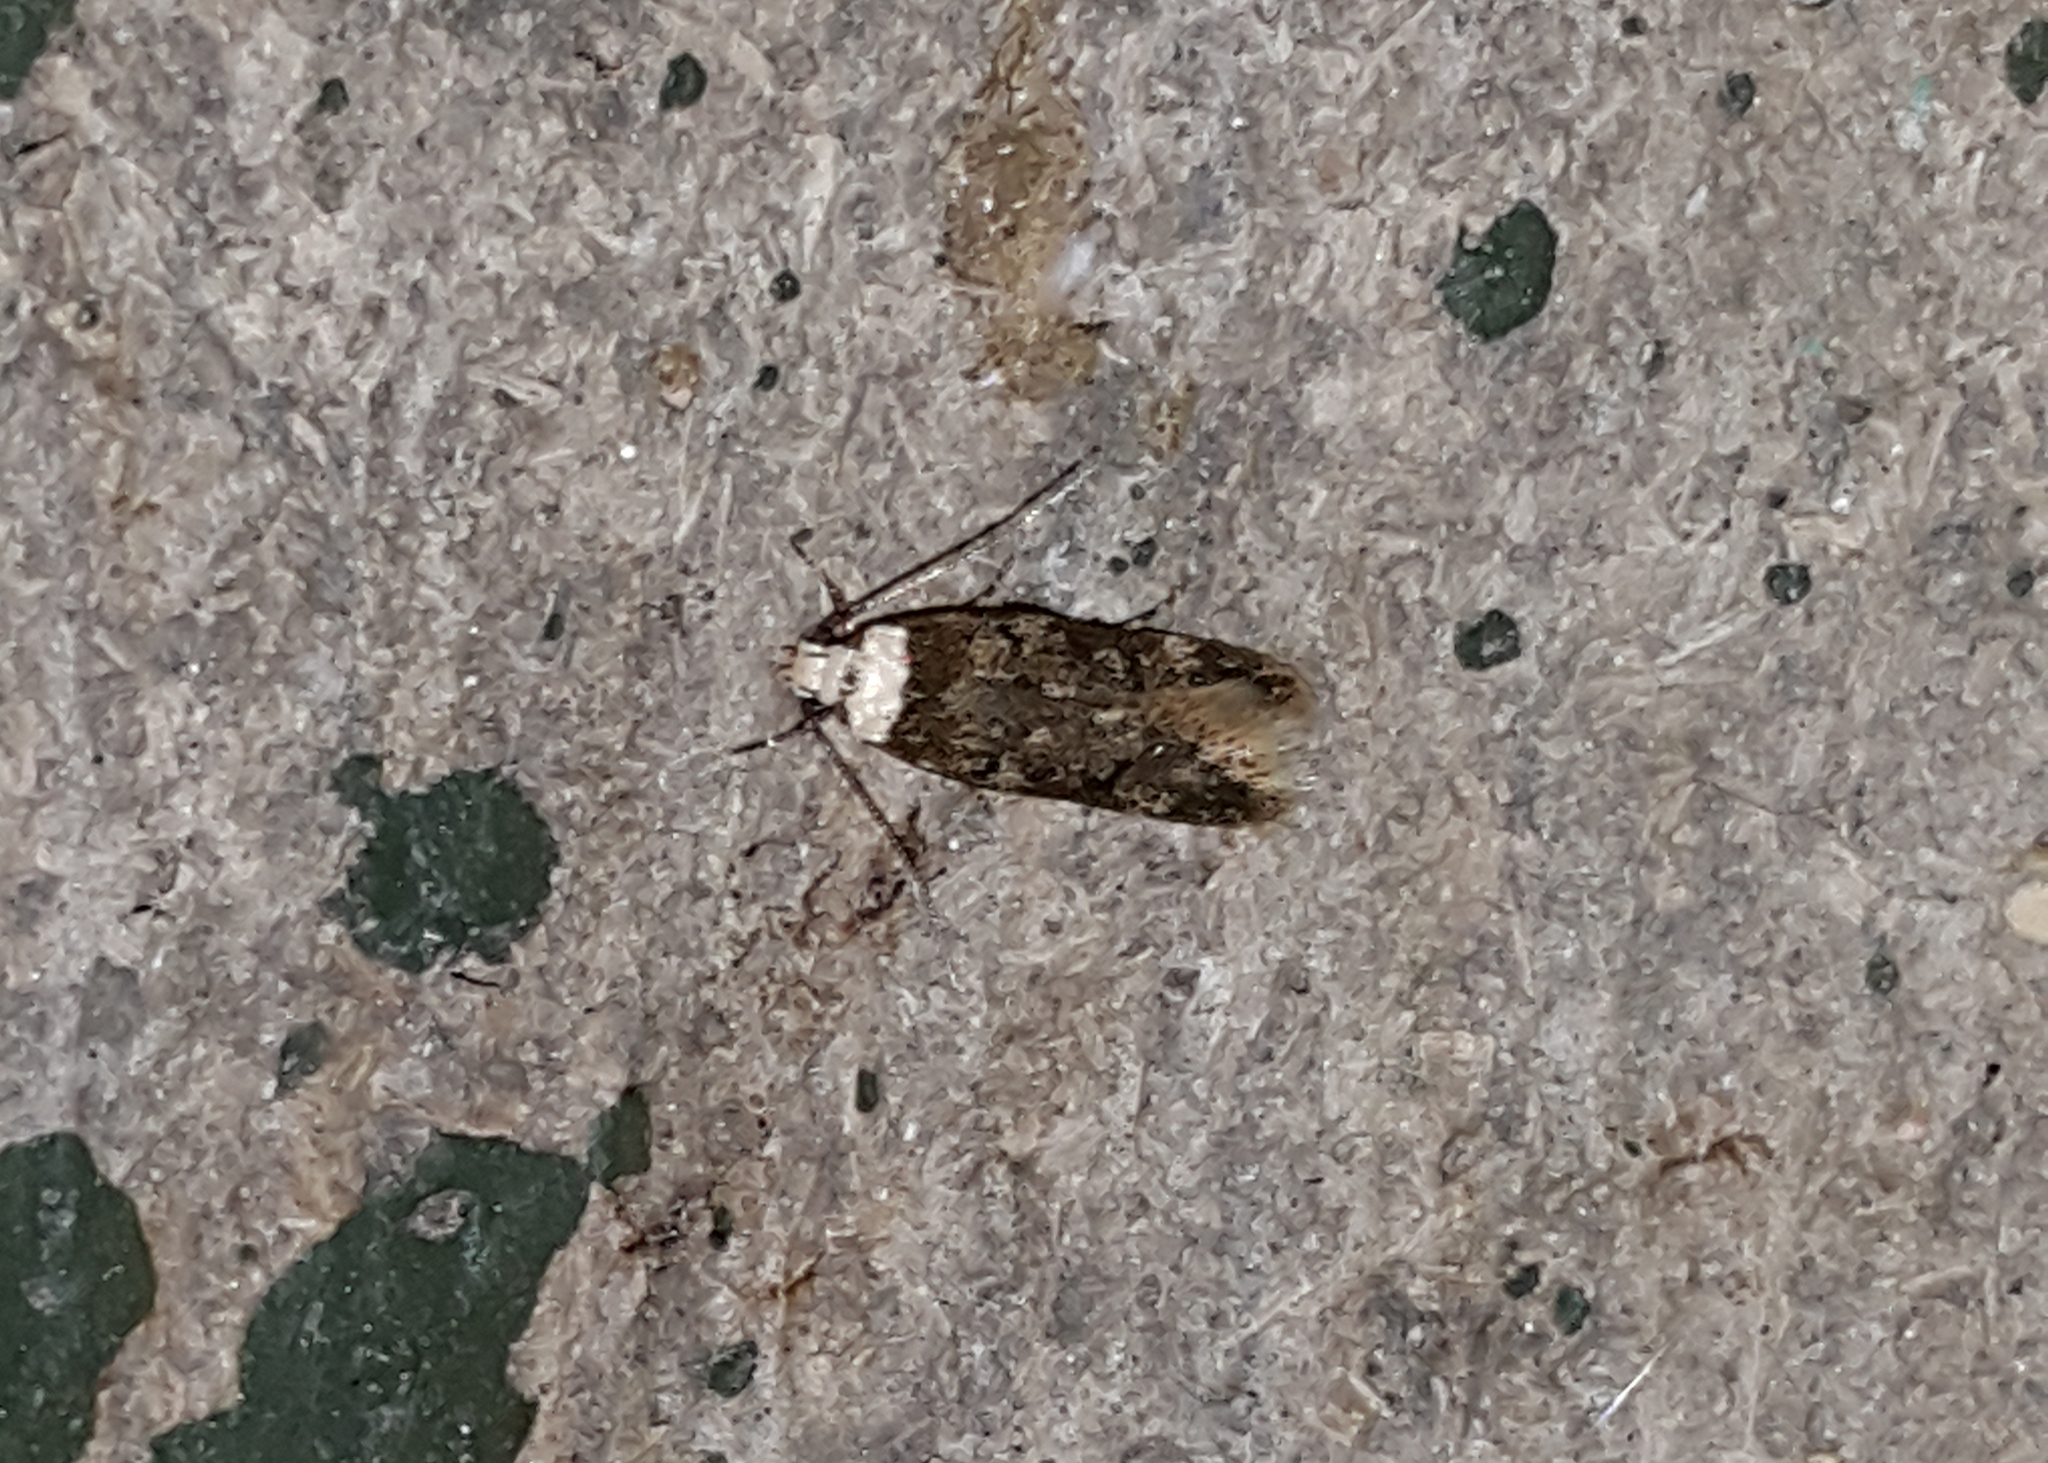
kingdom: Animalia
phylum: Arthropoda
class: Insecta
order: Lepidoptera
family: Oecophoridae
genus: Endrosis
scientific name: Endrosis sarcitrella
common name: White-shouldered house moth
